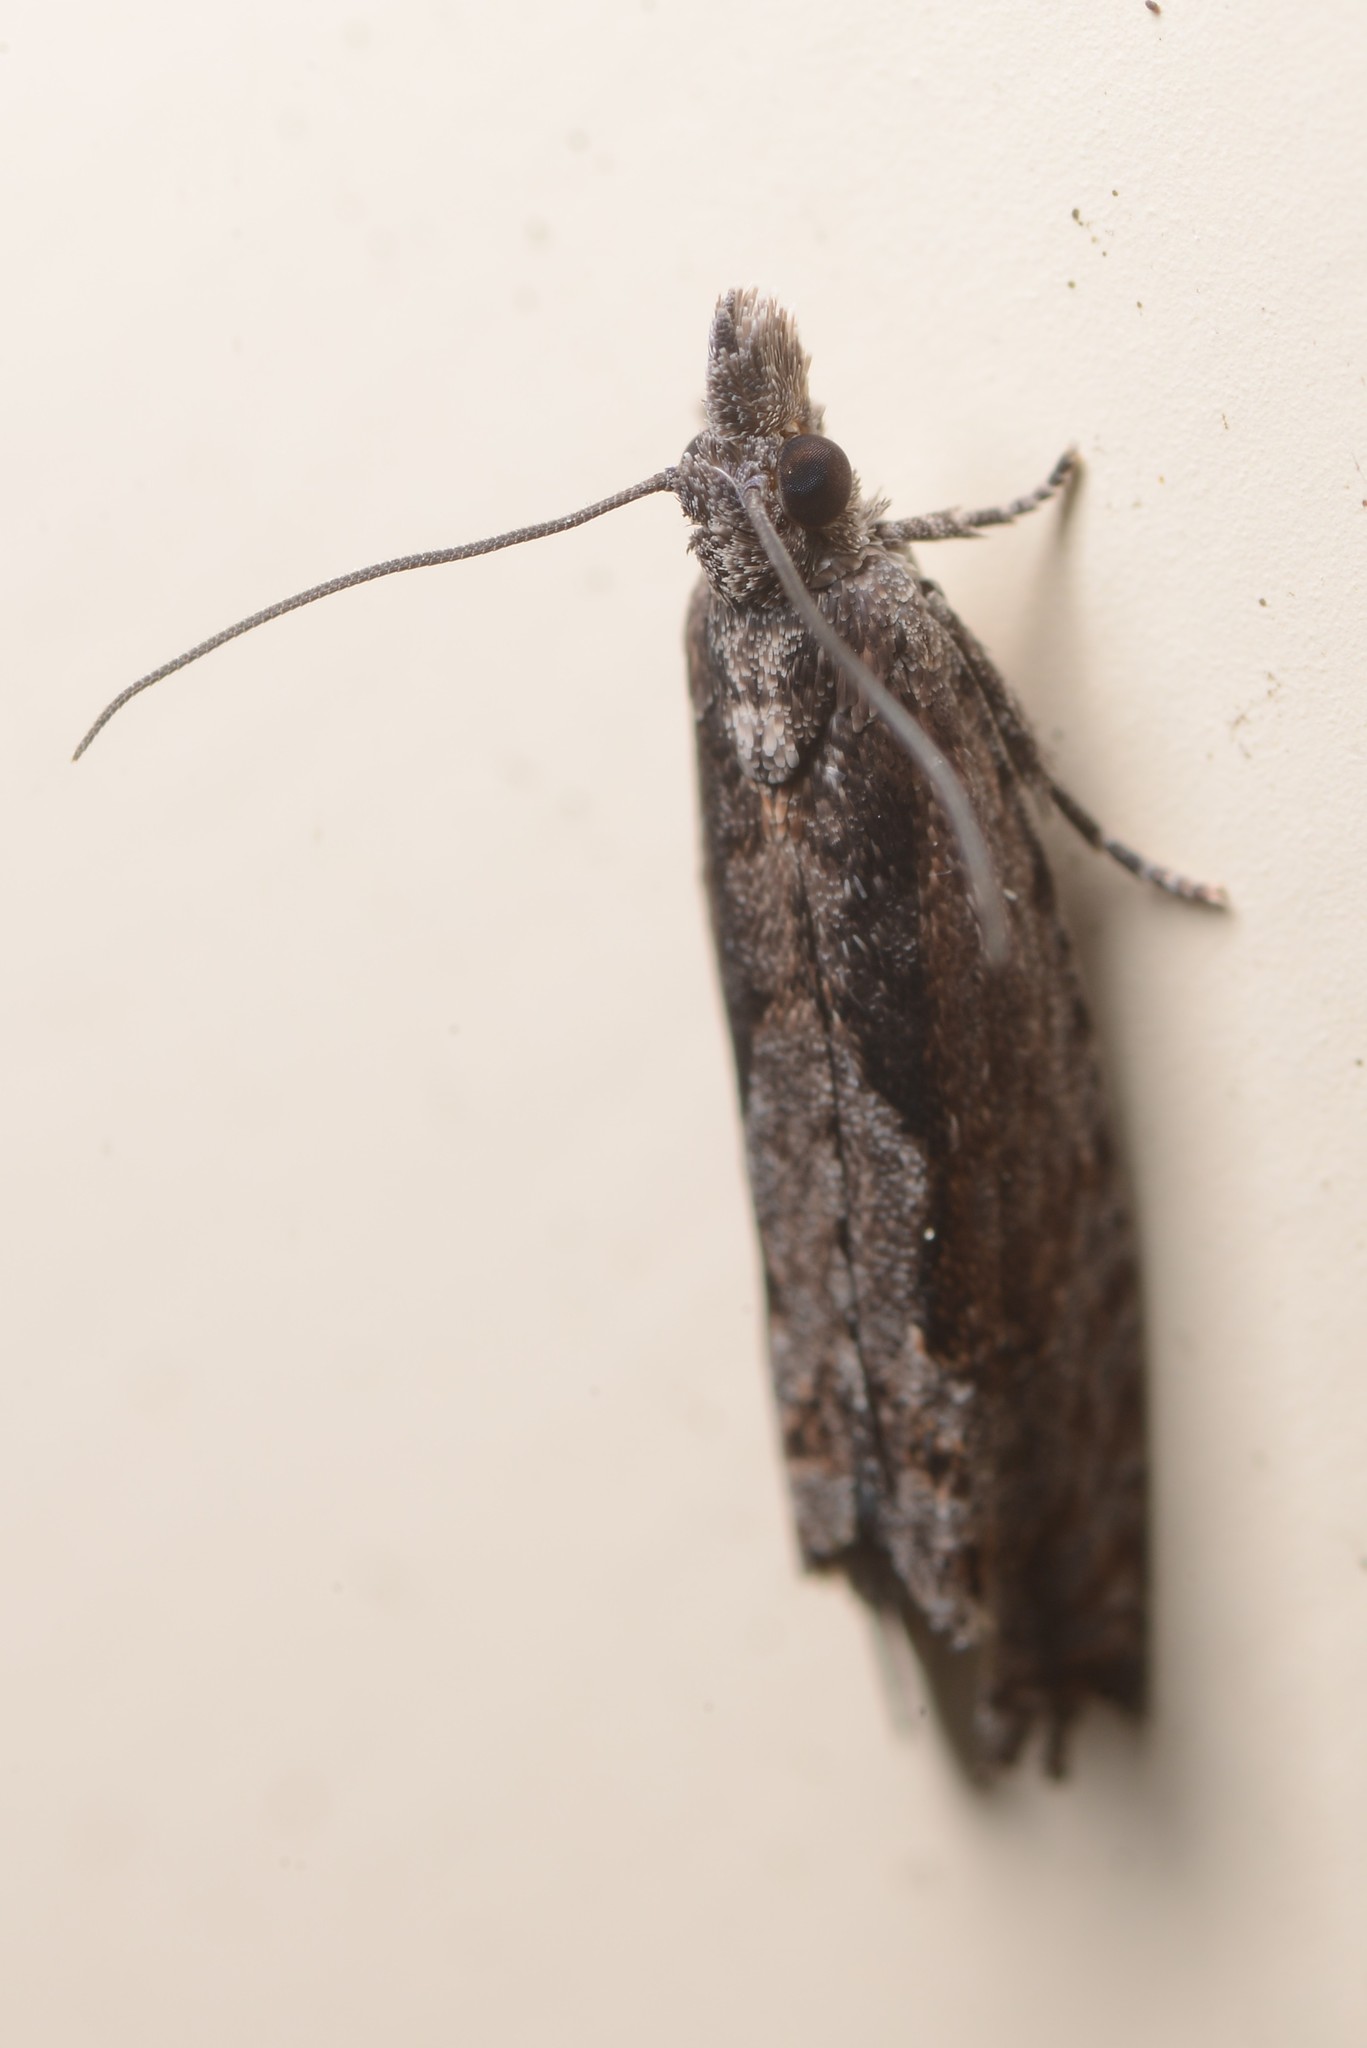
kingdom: Animalia
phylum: Arthropoda
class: Insecta
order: Lepidoptera
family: Tortricidae
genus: Strepsicrates
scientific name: Strepsicrates macropetana
